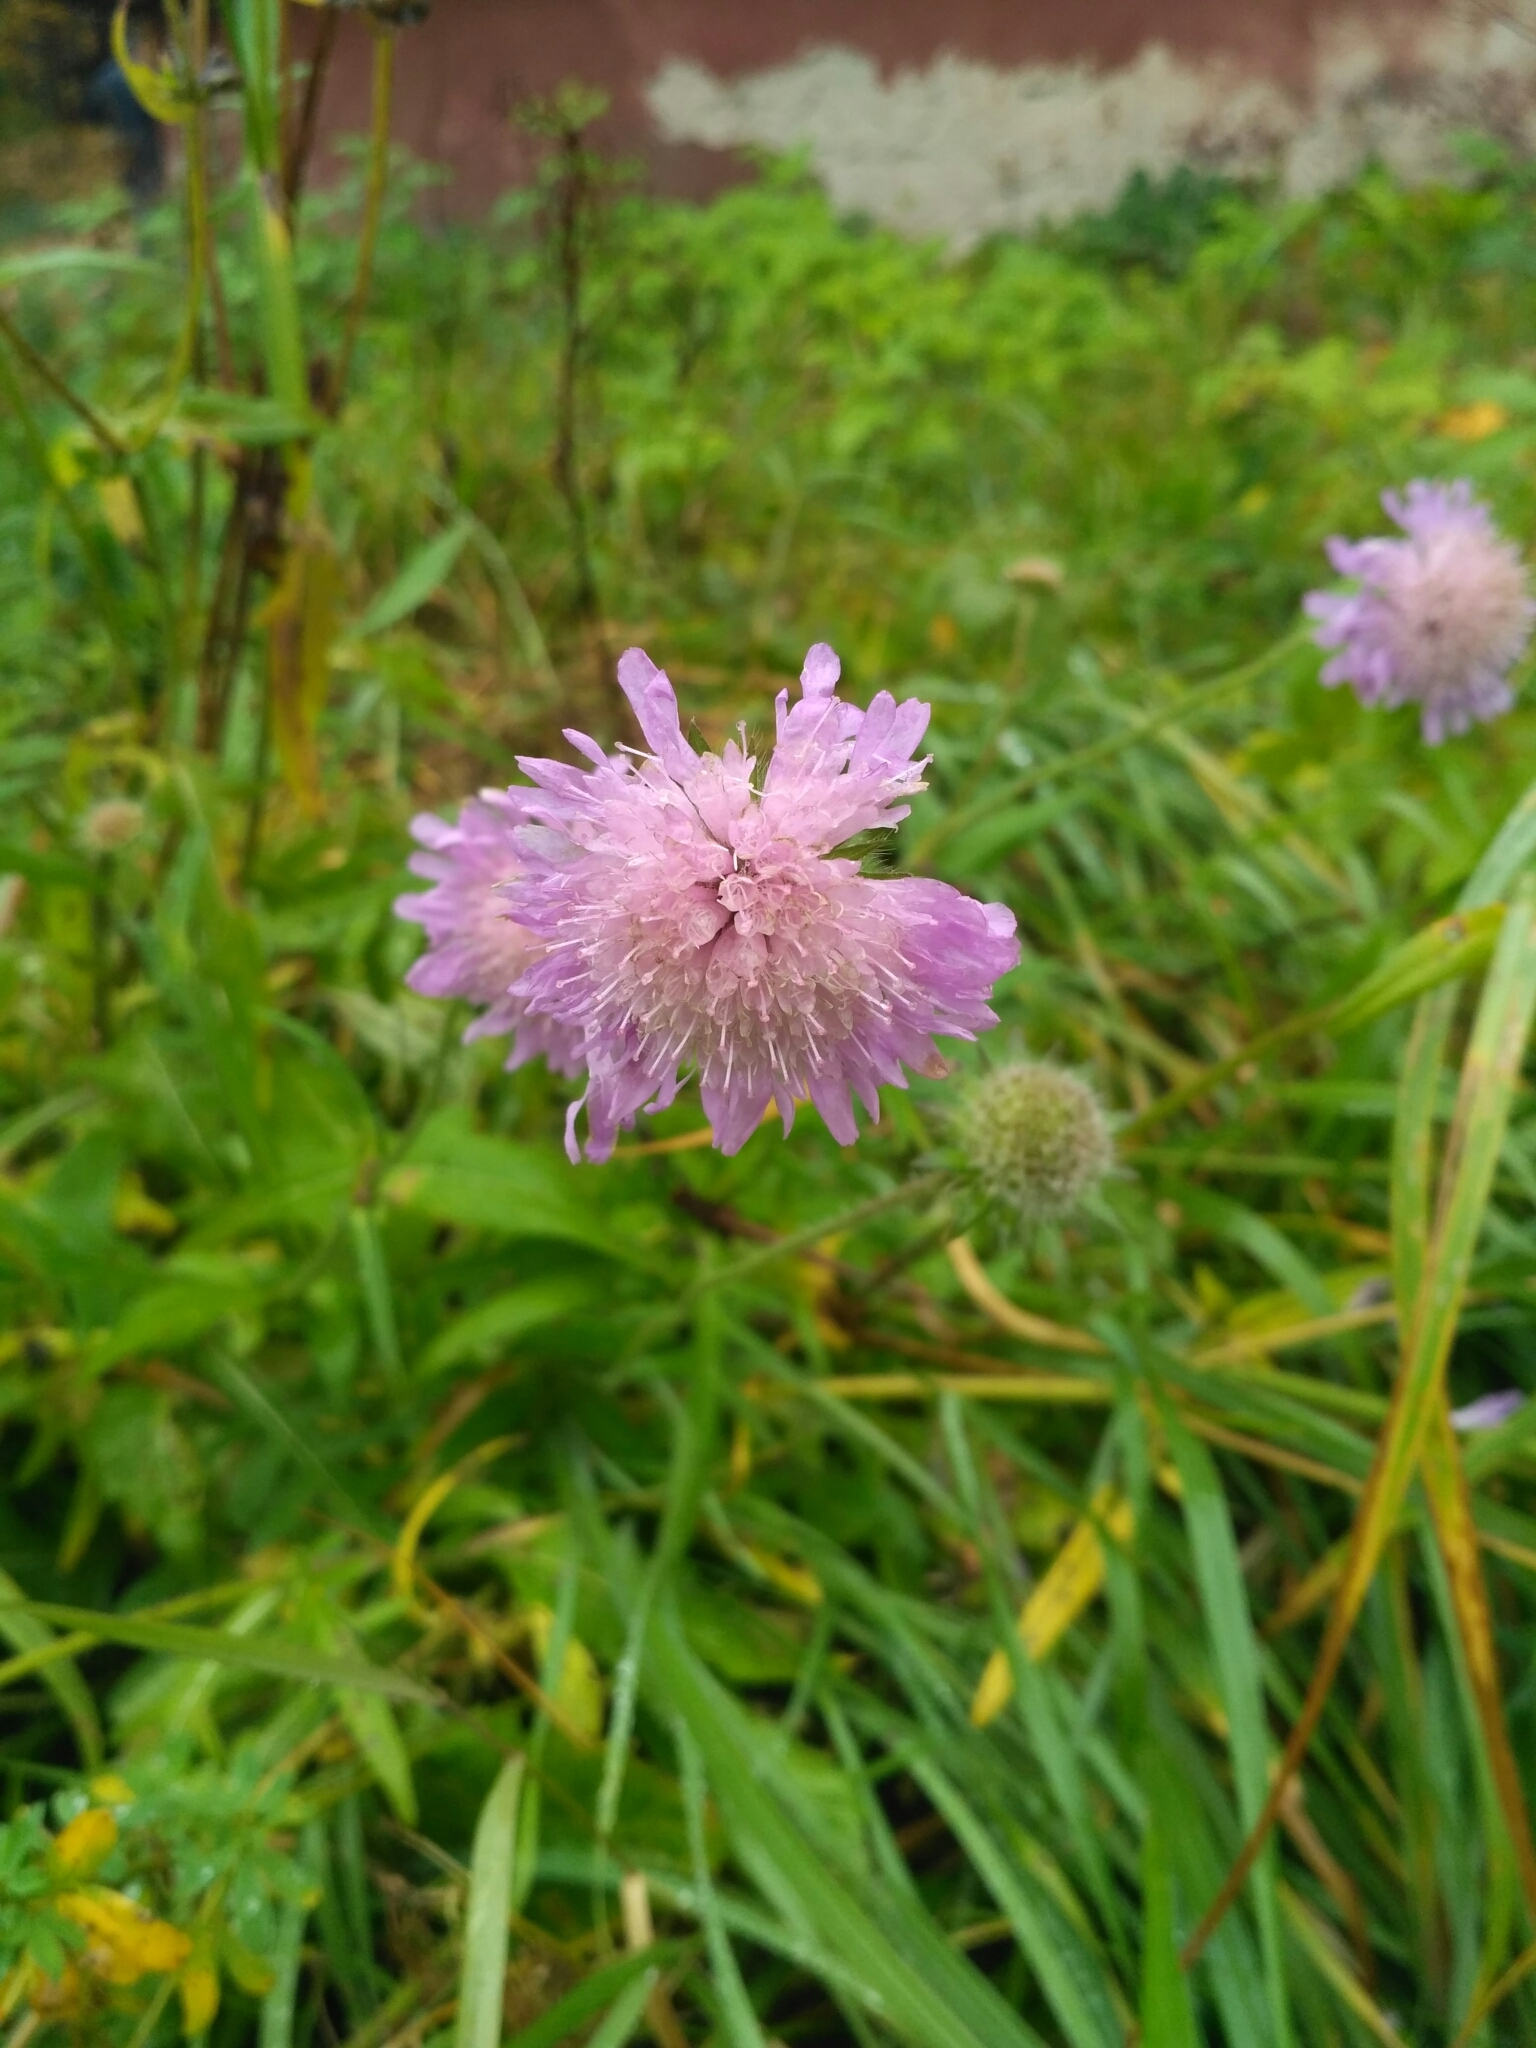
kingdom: Plantae
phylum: Tracheophyta
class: Magnoliopsida
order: Dipsacales
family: Caprifoliaceae
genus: Knautia
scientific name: Knautia arvensis
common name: Field scabiosa
